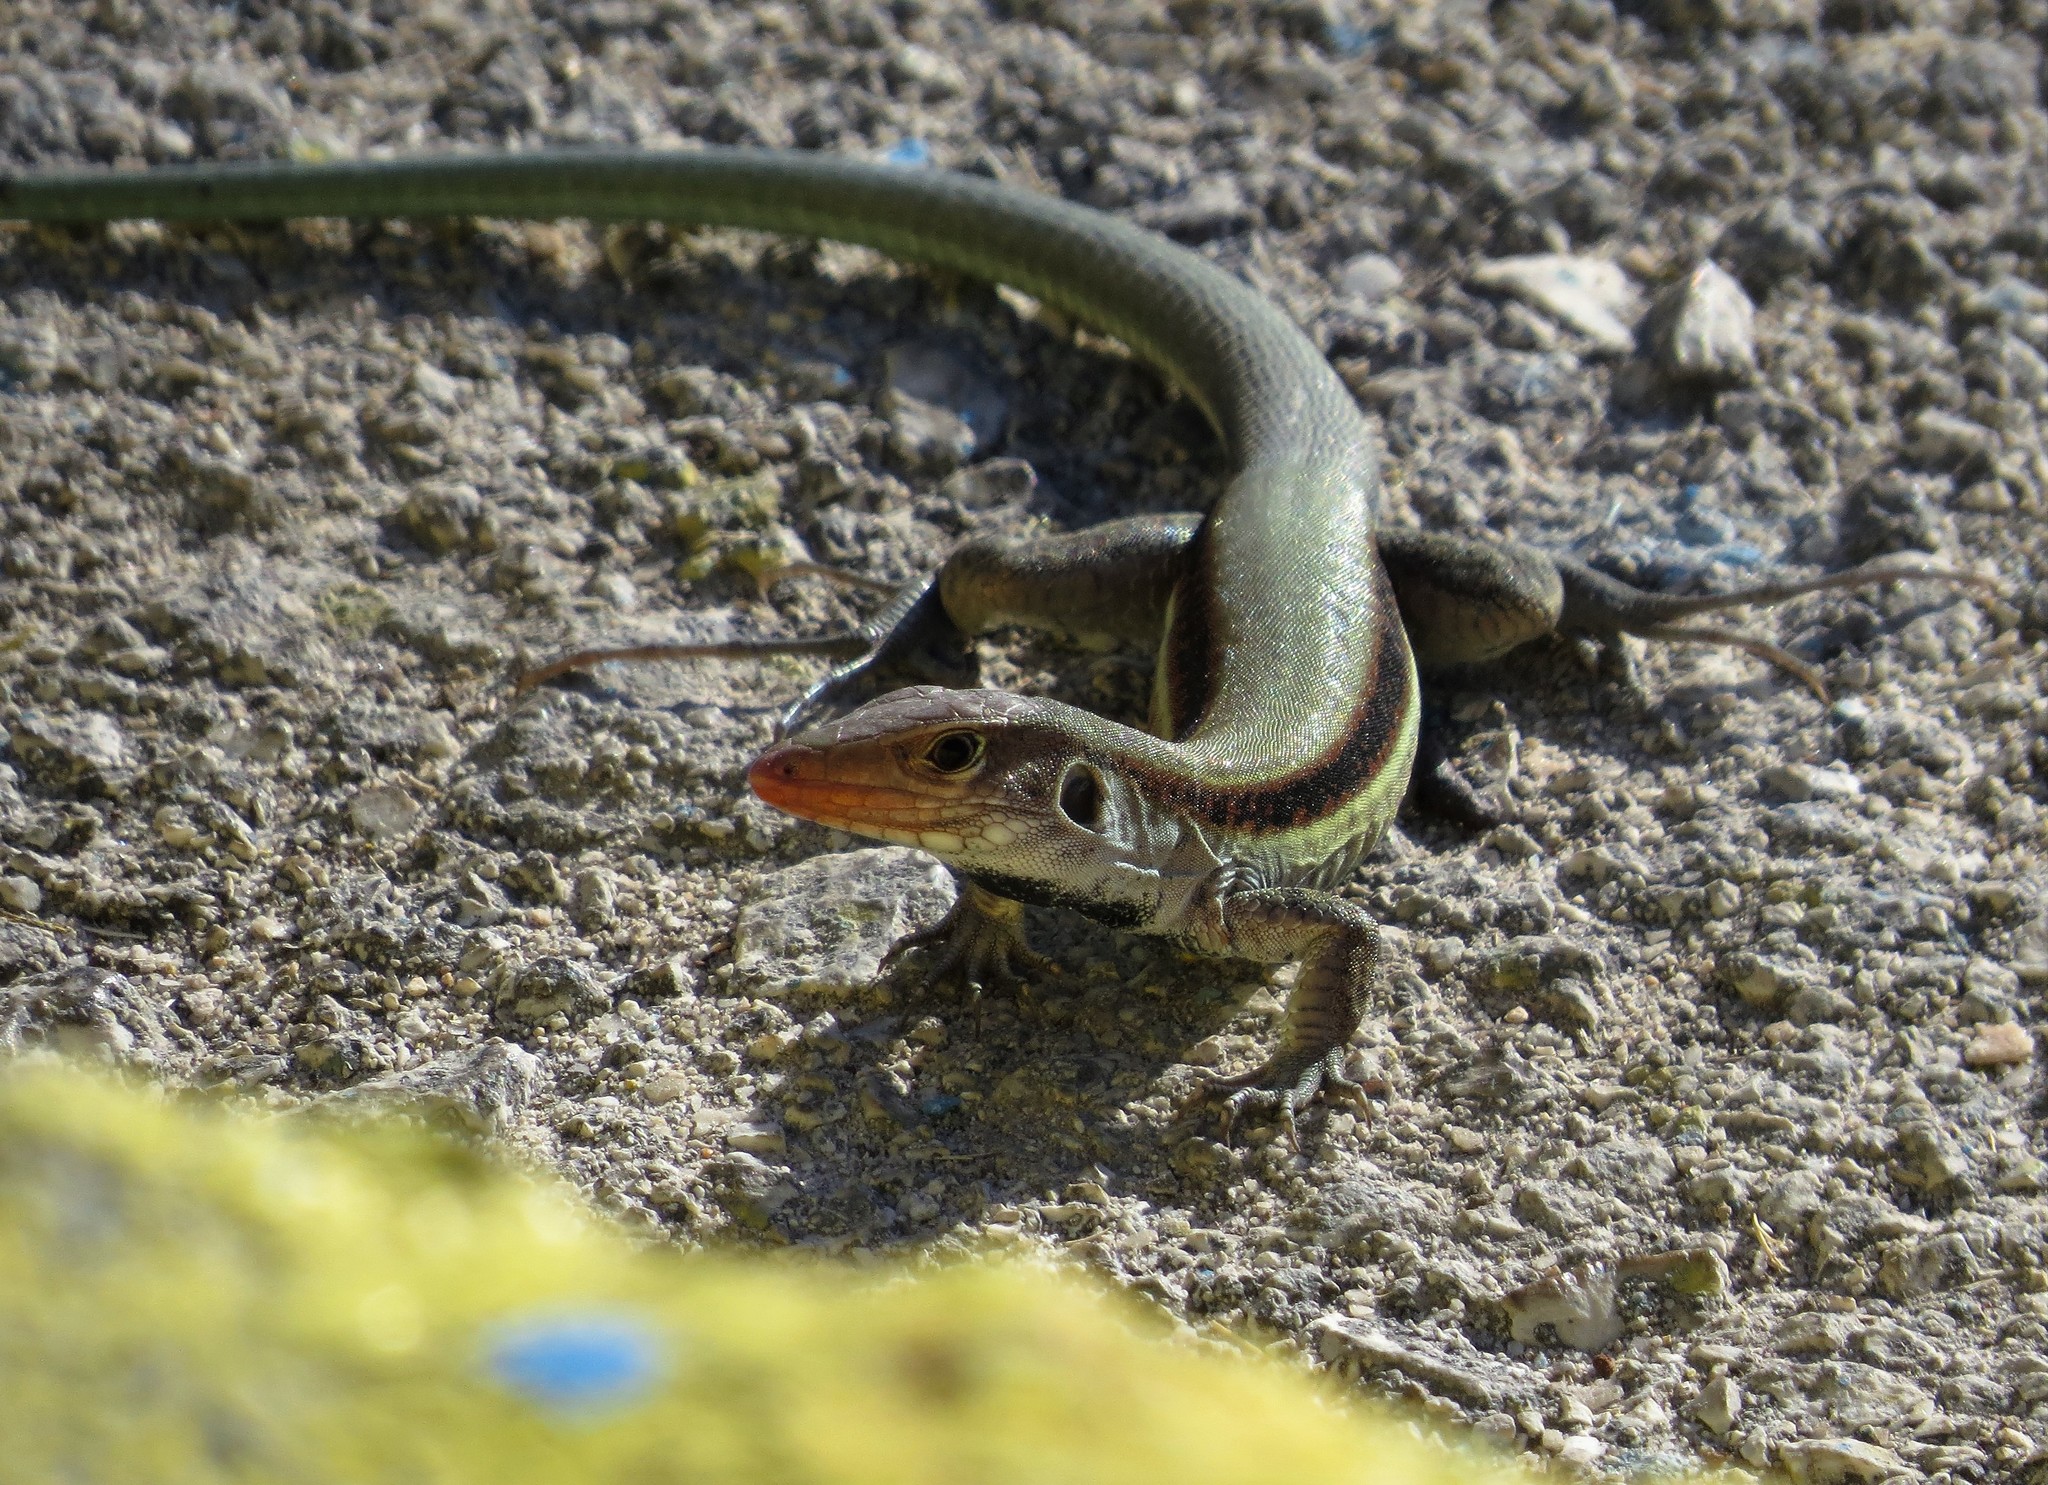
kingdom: Animalia
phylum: Chordata
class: Squamata
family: Teiidae
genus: Pholidoscelis
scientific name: Pholidoscelis auberi
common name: Auber's ameiva
